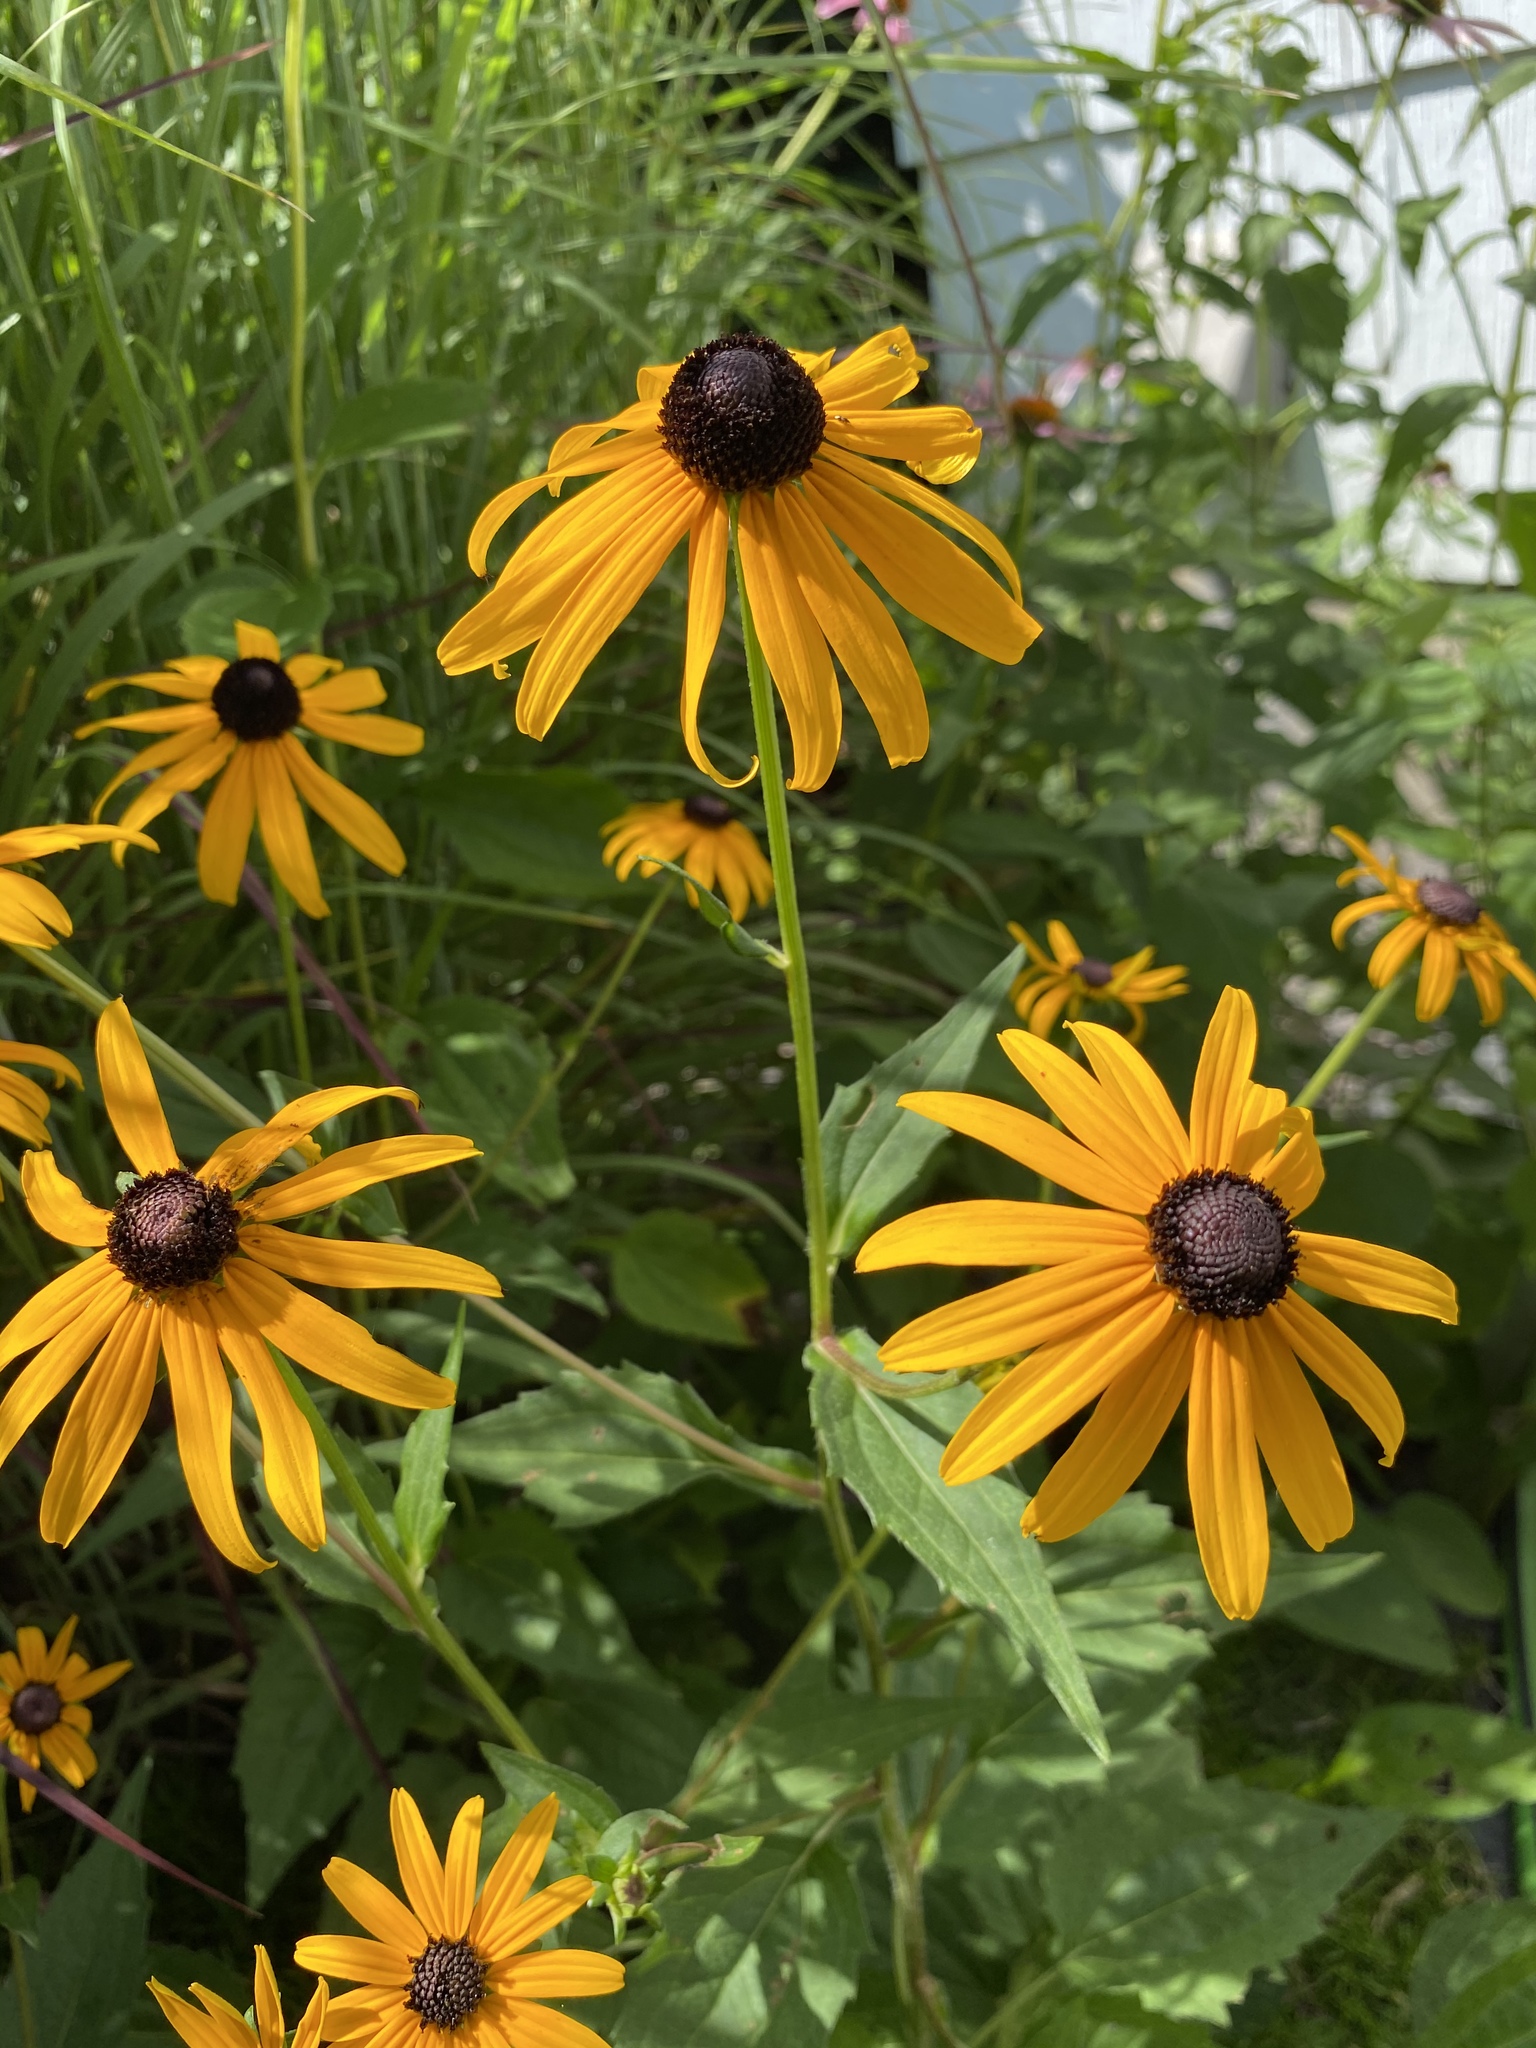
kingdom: Plantae
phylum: Tracheophyta
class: Magnoliopsida
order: Asterales
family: Asteraceae
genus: Rudbeckia
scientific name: Rudbeckia sullivantii
